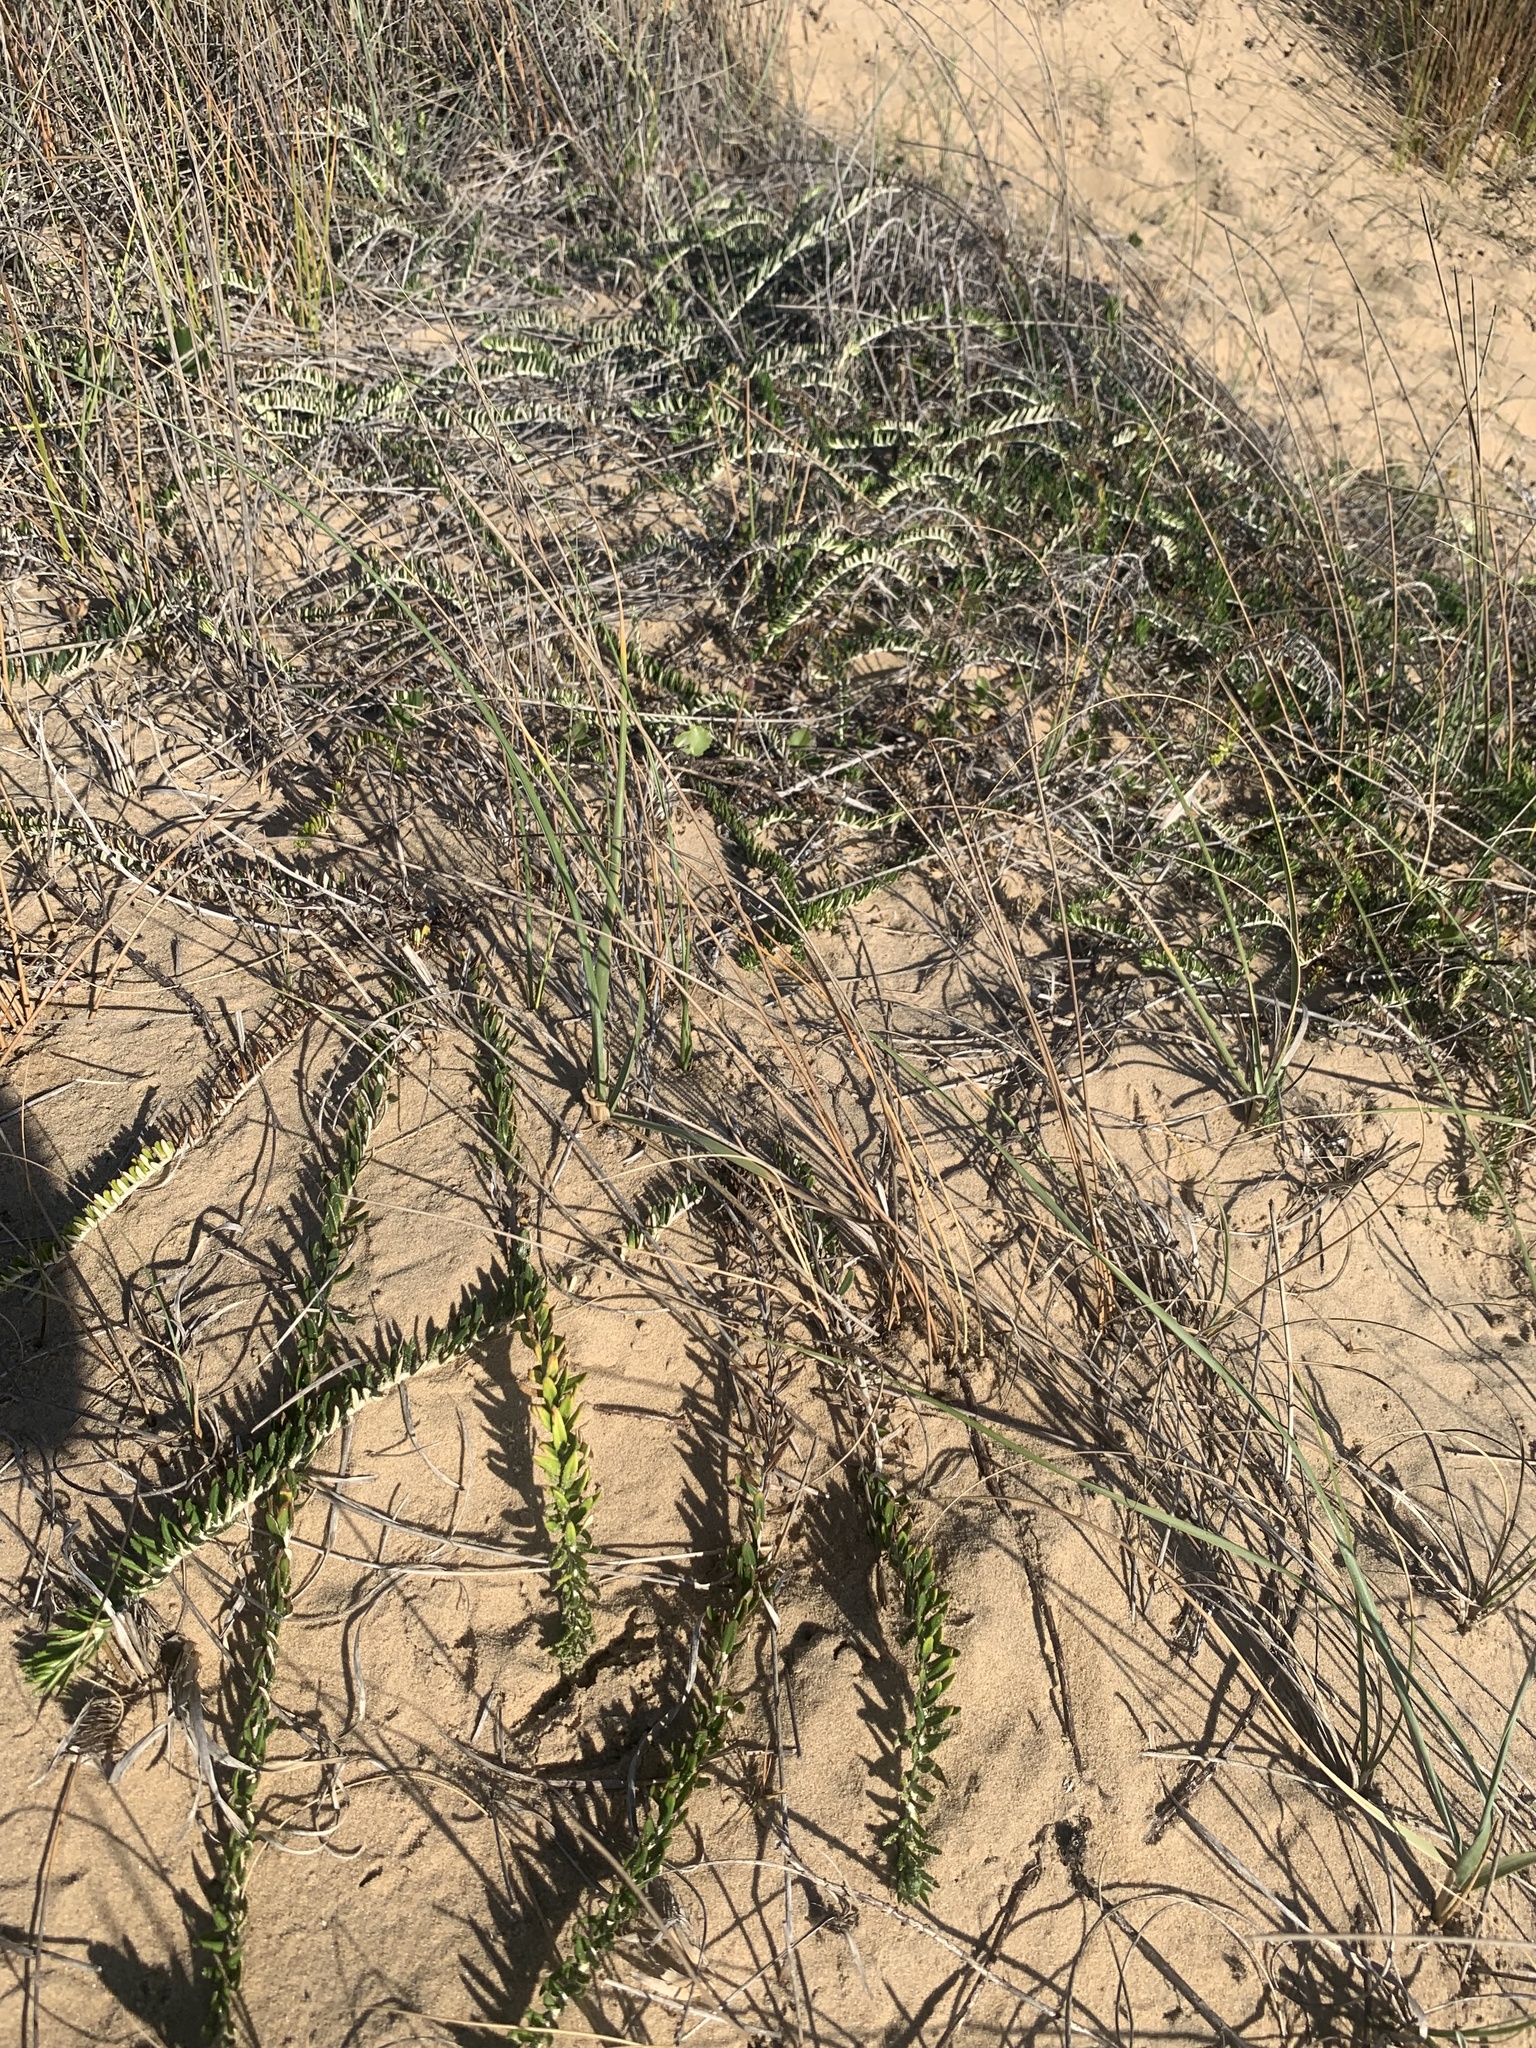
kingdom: Plantae
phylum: Tracheophyta
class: Magnoliopsida
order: Asterales
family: Asteraceae
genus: Baccharis
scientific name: Baccharis gnaphalioides
